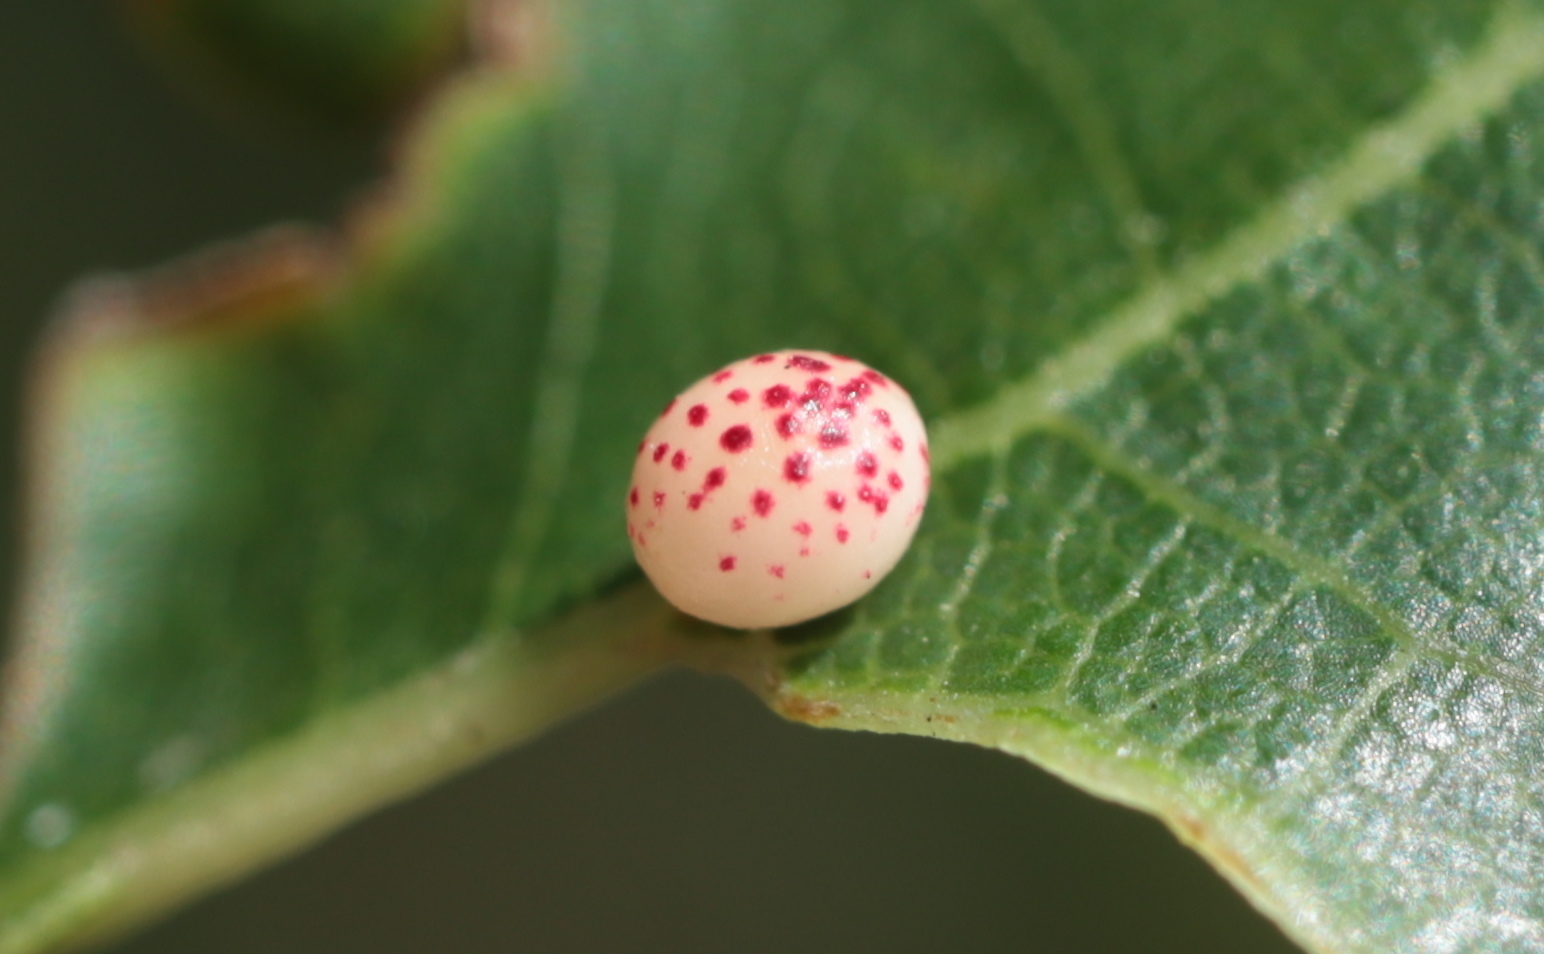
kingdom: Animalia
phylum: Arthropoda
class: Insecta
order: Hymenoptera
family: Cynipidae
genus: Zopheroteras
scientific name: Zopheroteras
